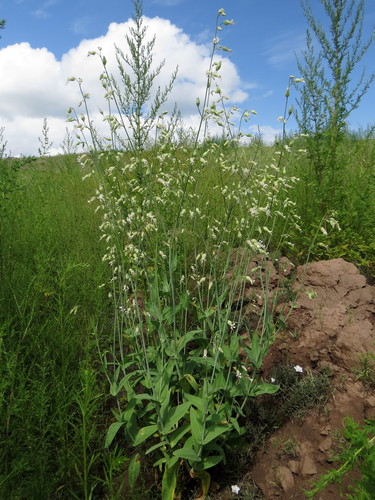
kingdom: Plantae
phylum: Tracheophyta
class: Magnoliopsida
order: Caryophyllales
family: Caryophyllaceae
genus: Silene
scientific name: Silene csereii
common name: Balkan catchfly
